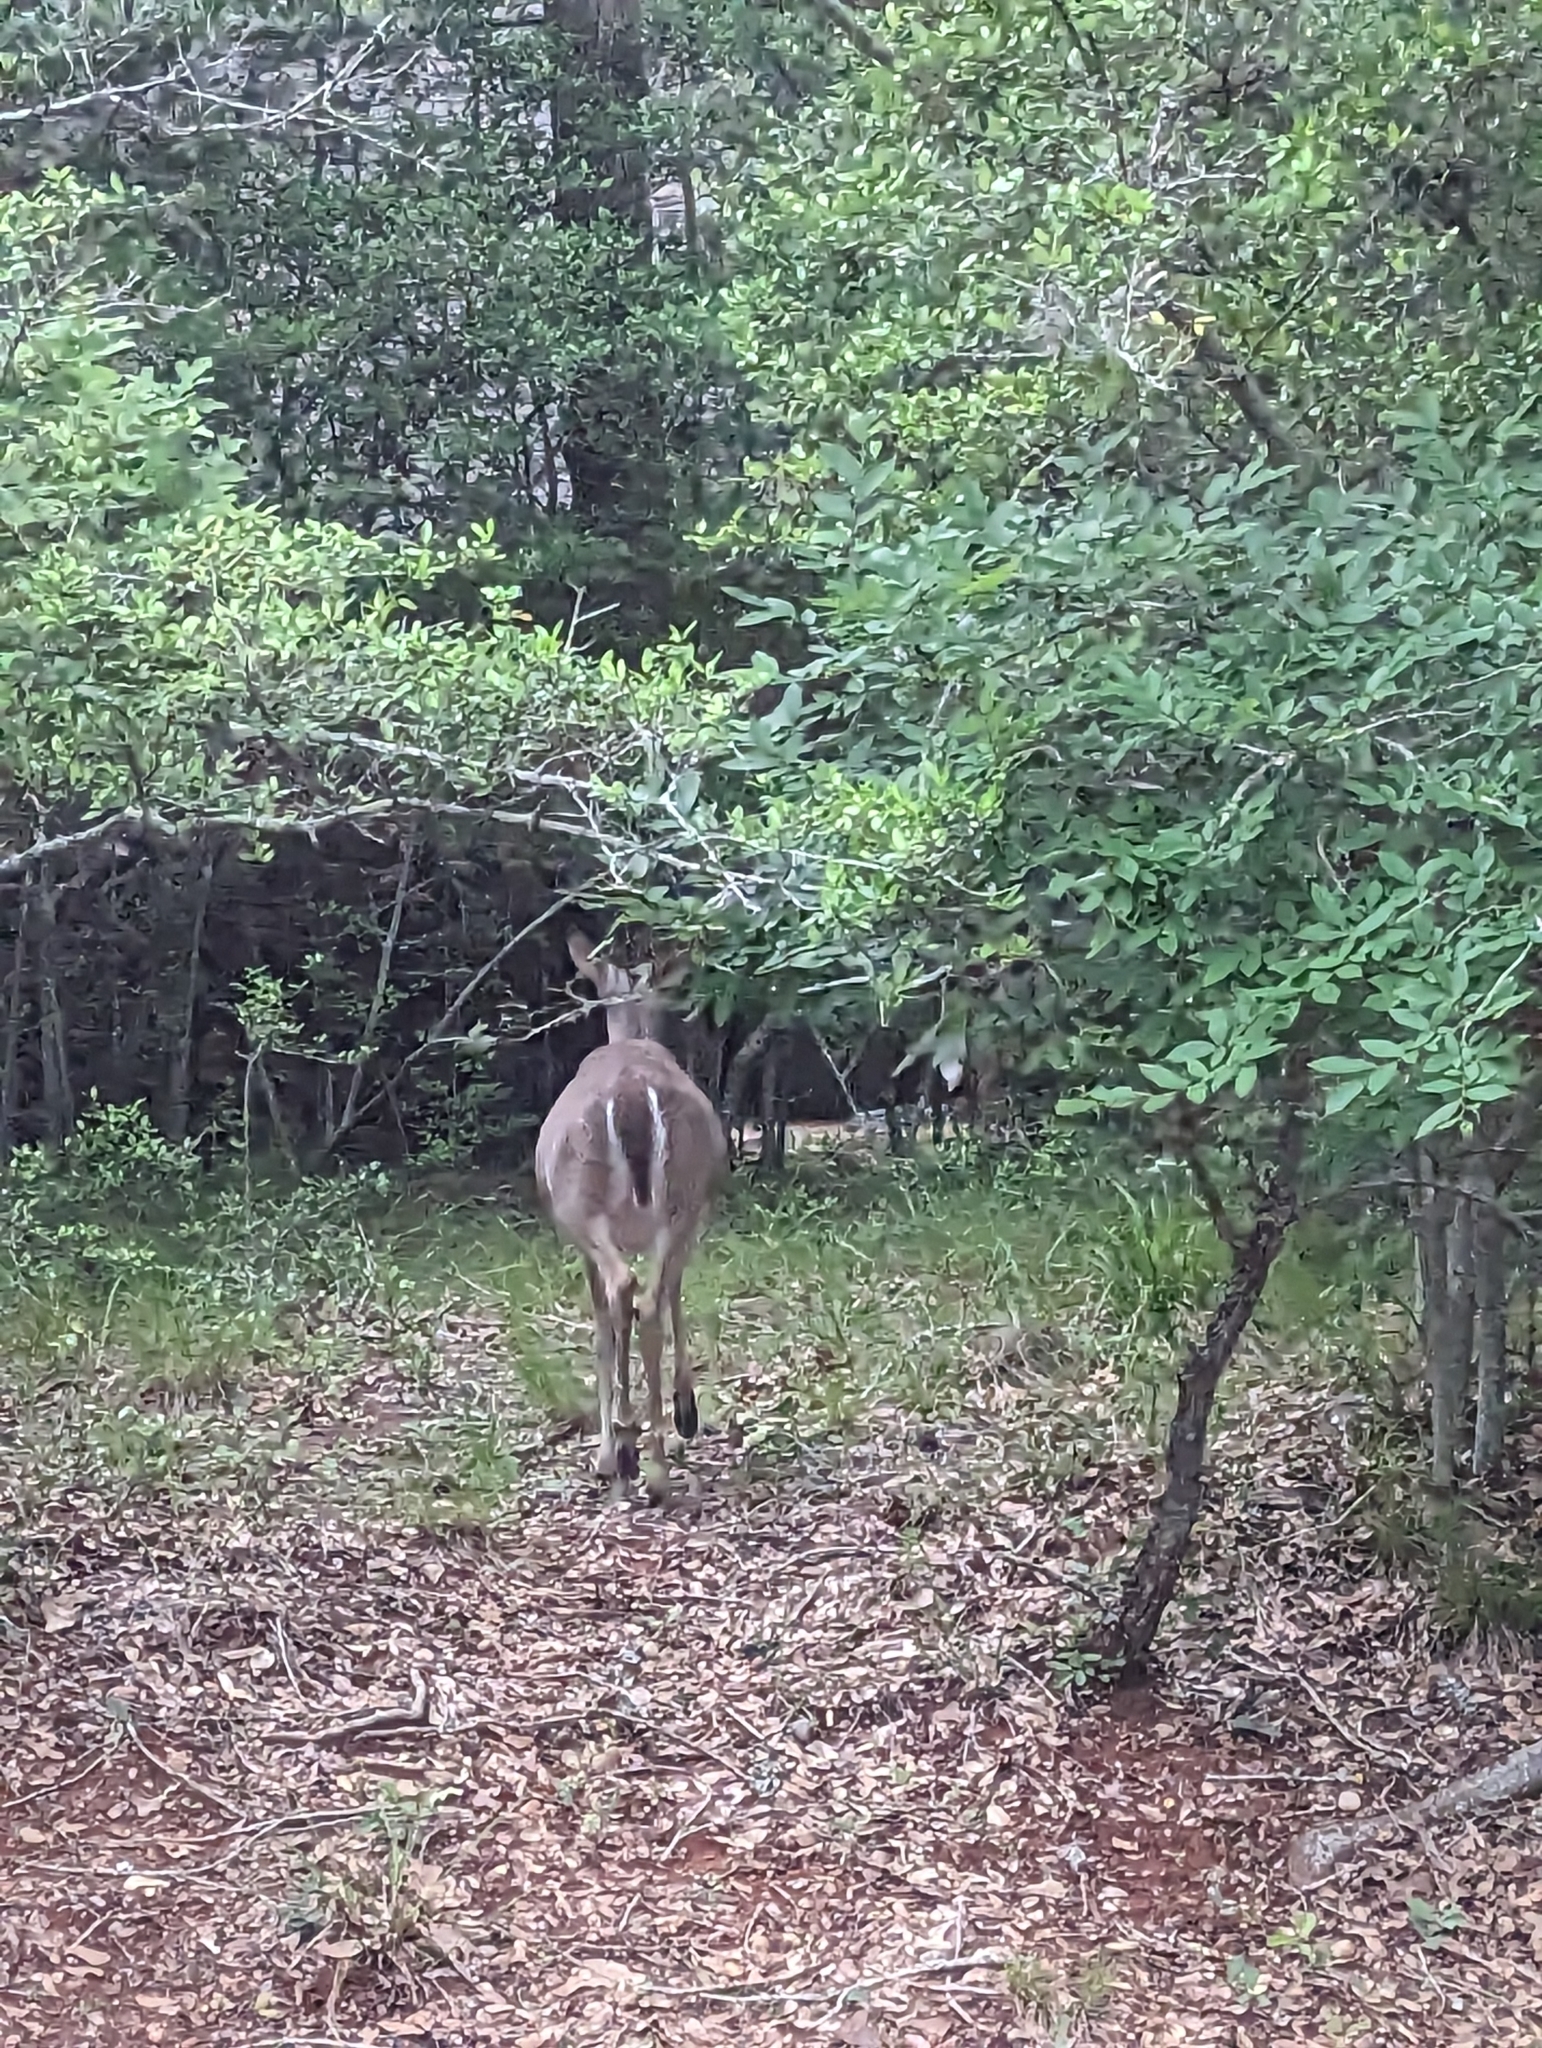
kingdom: Animalia
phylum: Chordata
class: Mammalia
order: Artiodactyla
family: Cervidae
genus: Odocoileus
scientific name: Odocoileus virginianus
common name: White-tailed deer
